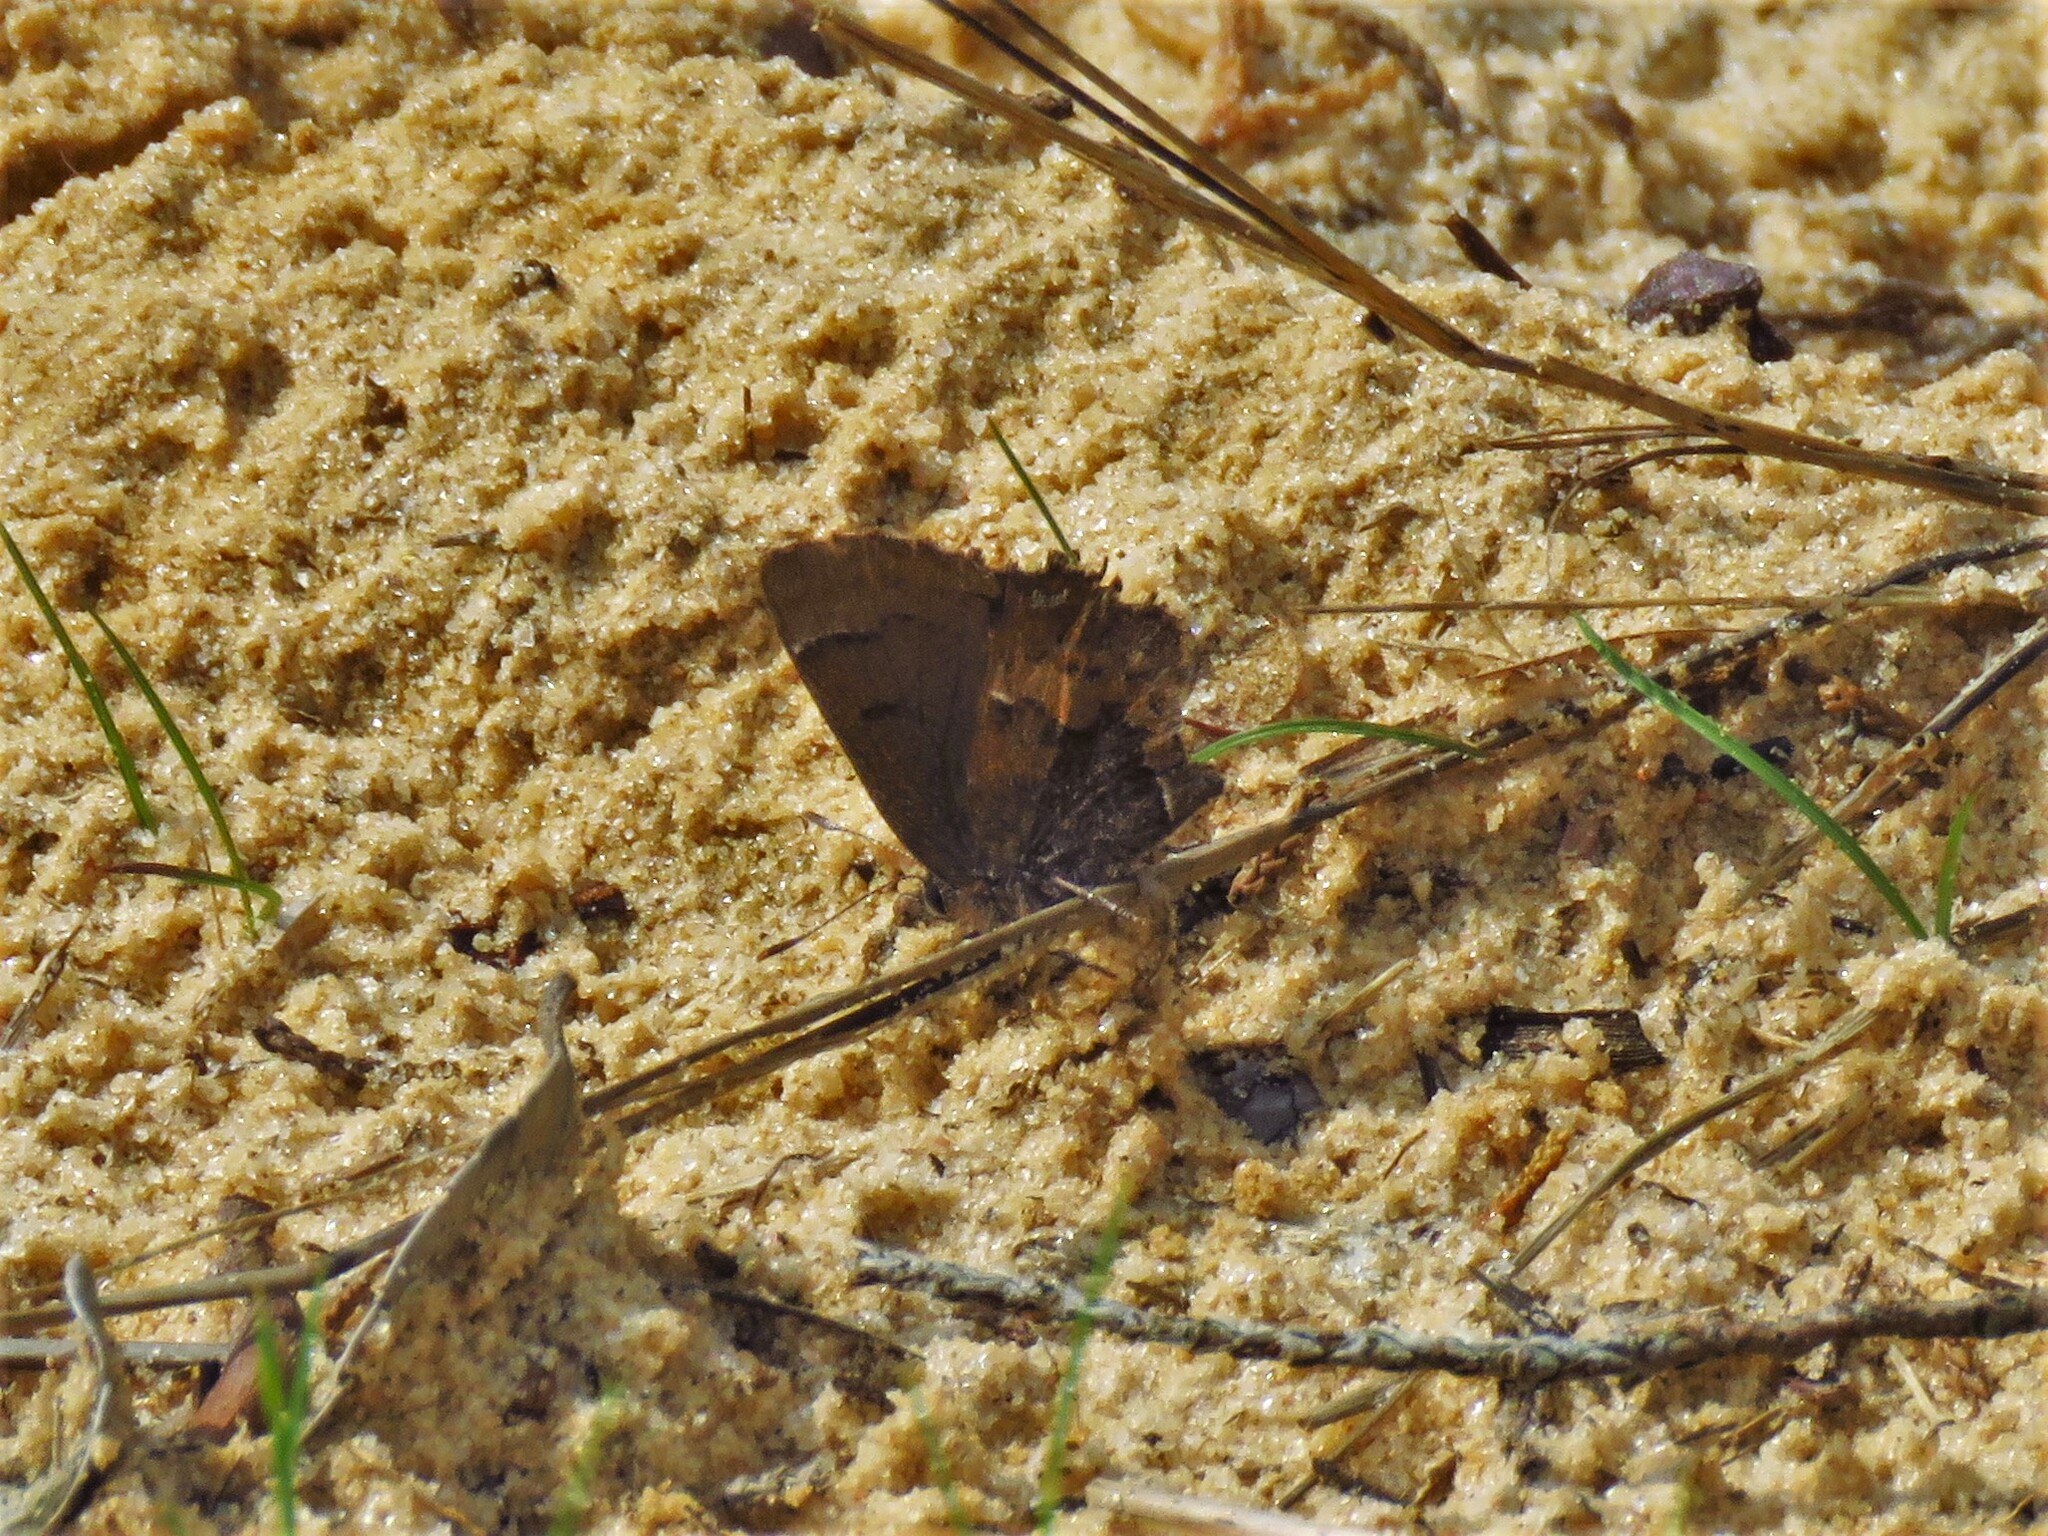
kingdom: Animalia
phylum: Arthropoda
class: Insecta
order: Lepidoptera
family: Lycaenidae
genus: Incisalia
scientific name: Incisalia henrici
